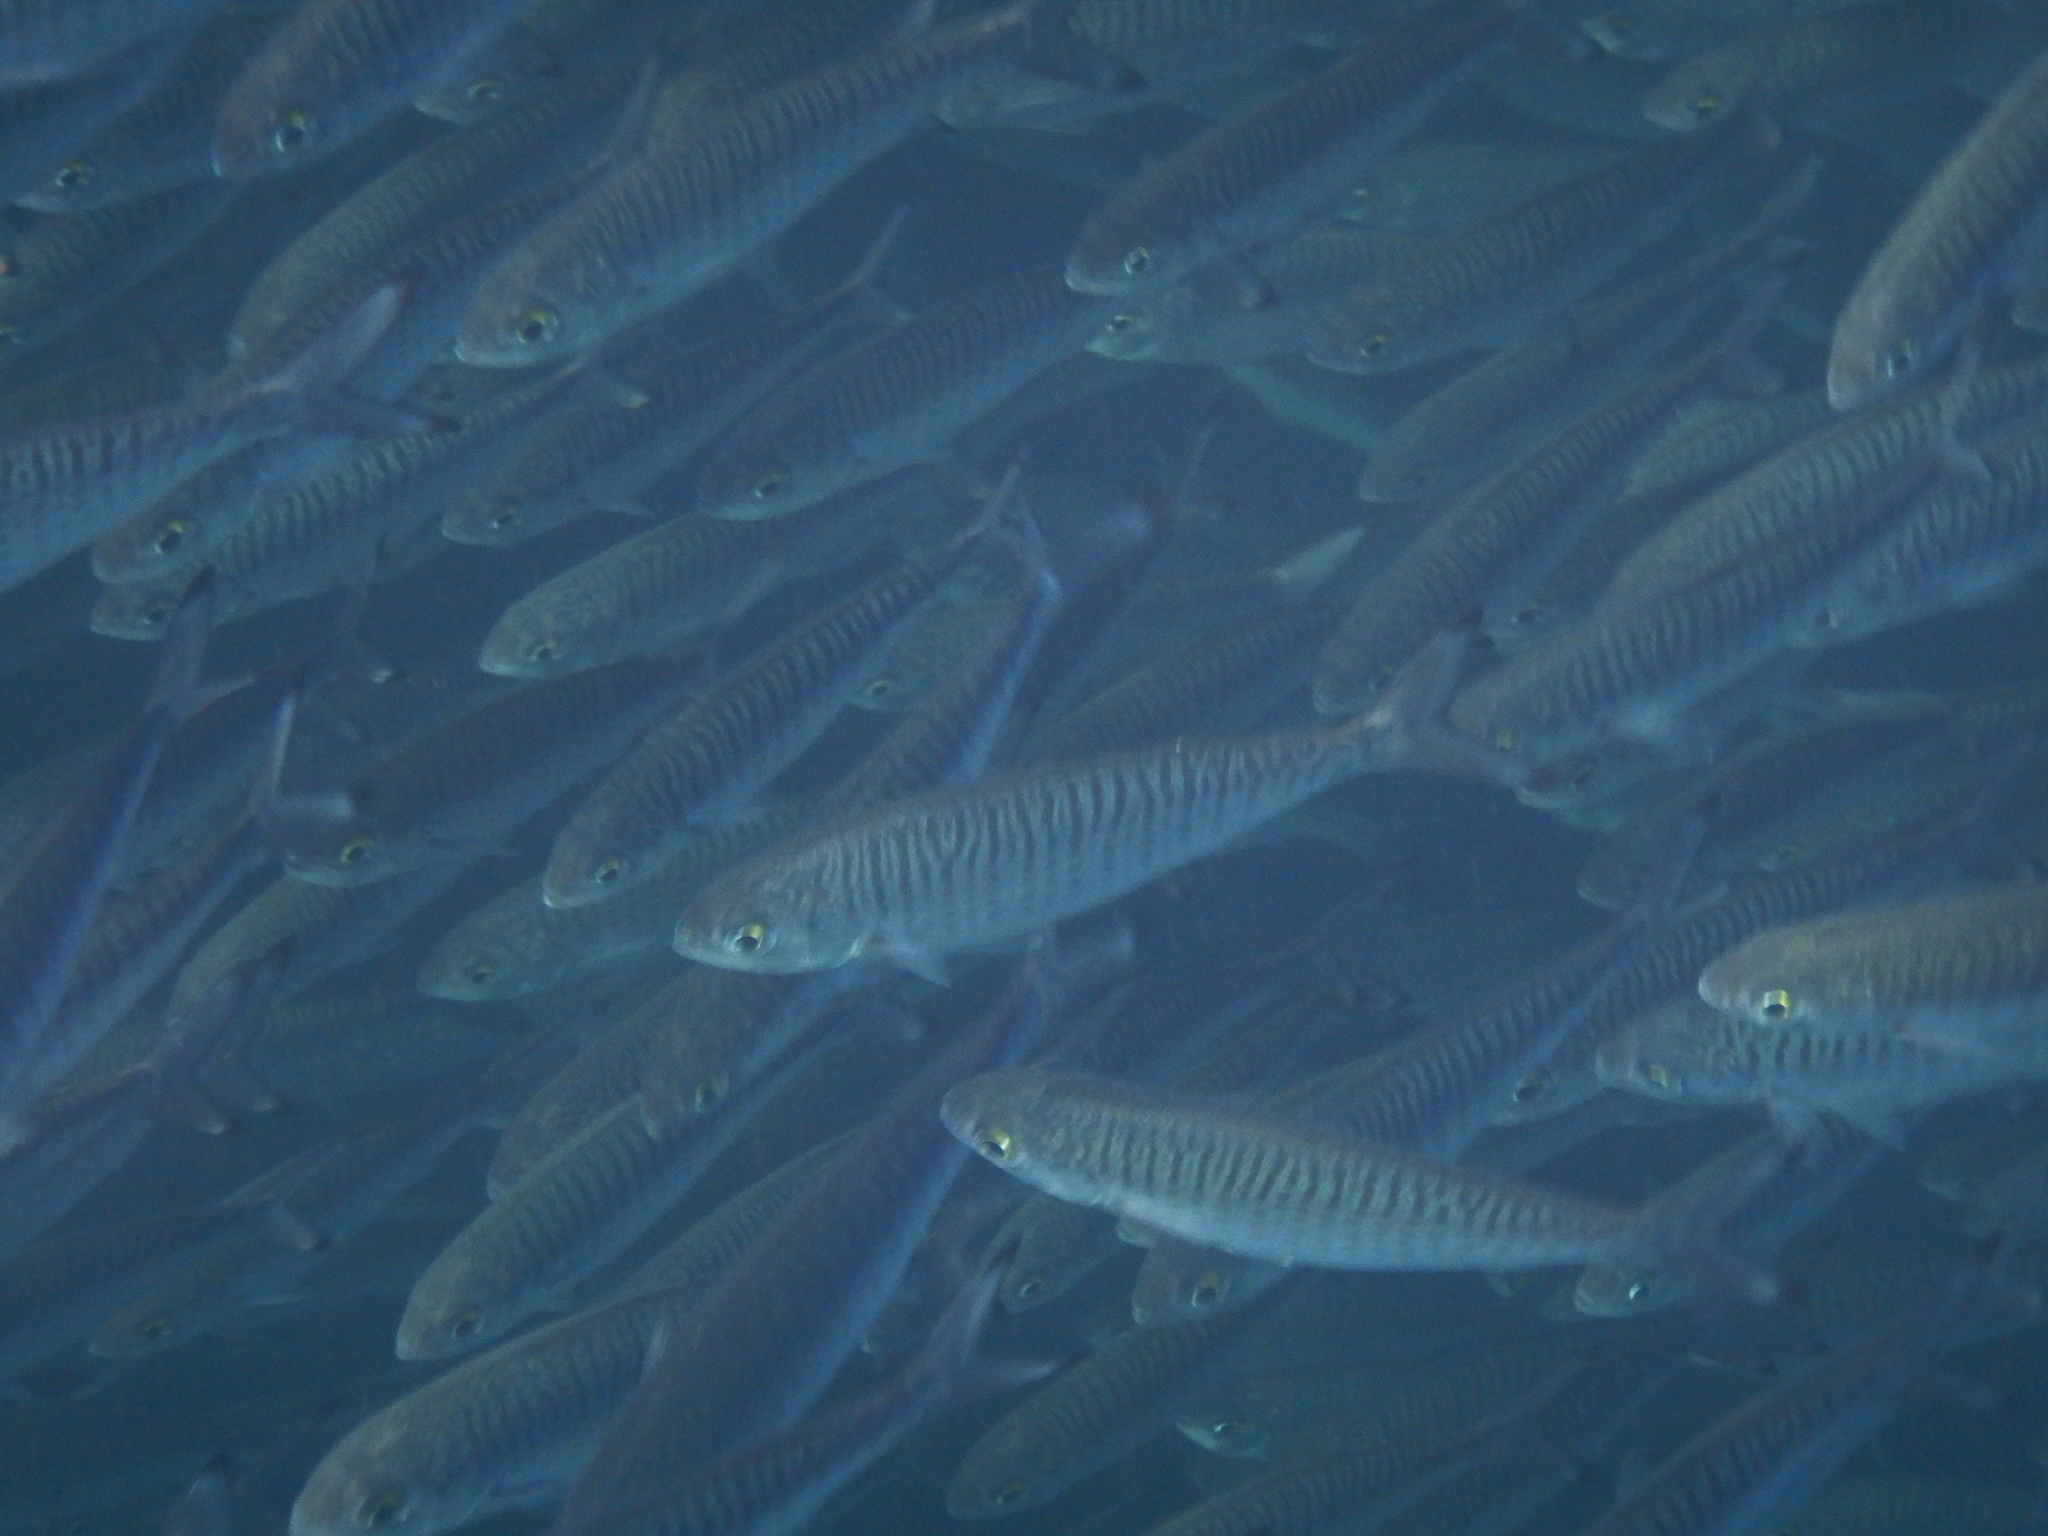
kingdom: Animalia
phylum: Chordata
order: Perciformes
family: Arripidae
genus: Arripis
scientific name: Arripis georgianus
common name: Australian herring
